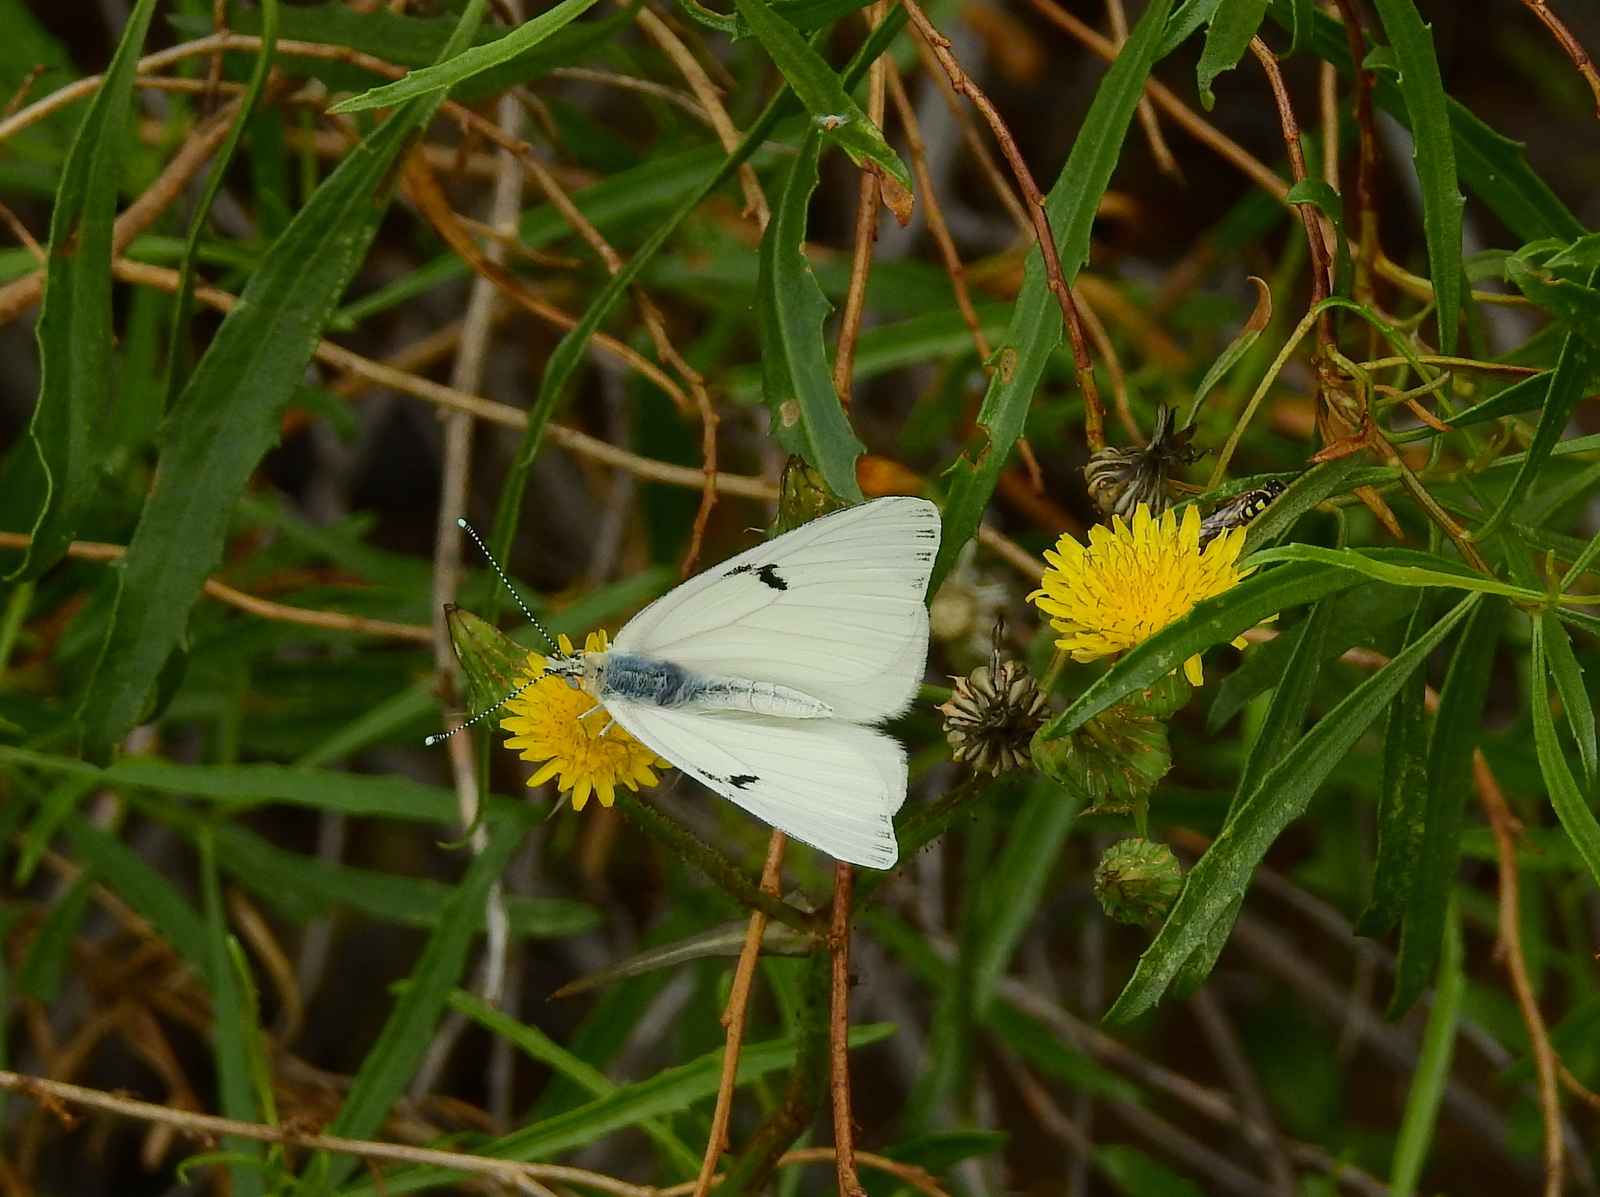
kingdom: Animalia
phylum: Arthropoda
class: Insecta
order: Lepidoptera
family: Pieridae
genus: Tatochila
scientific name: Tatochila mercedis
